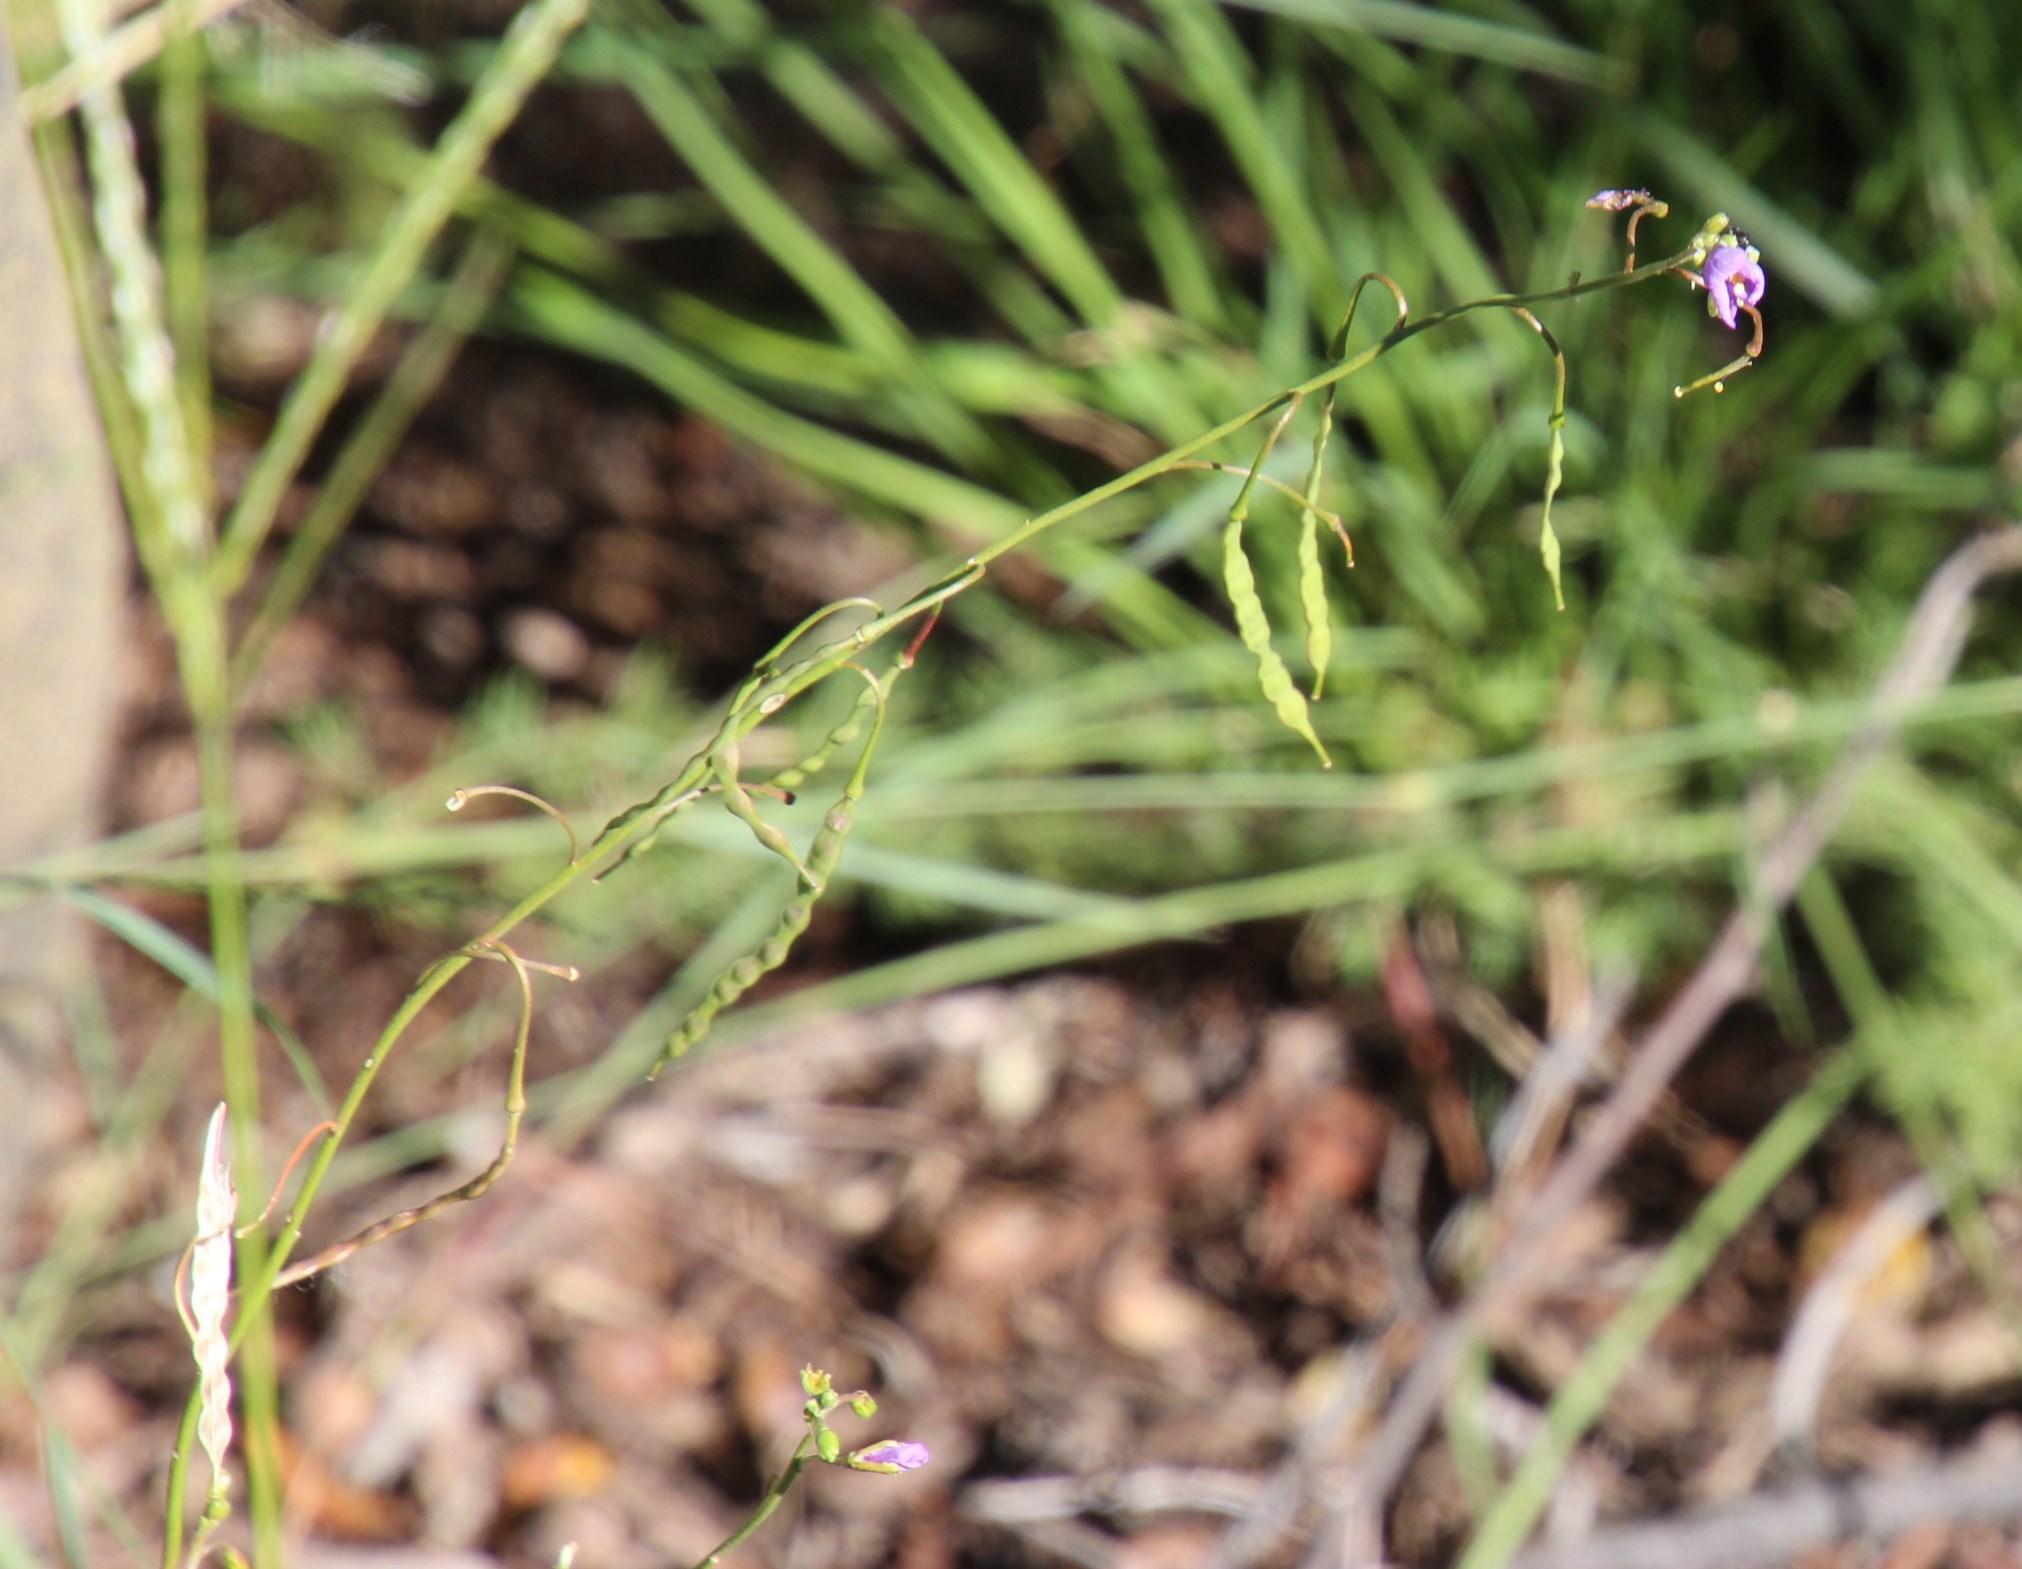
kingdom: Plantae
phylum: Tracheophyta
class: Magnoliopsida
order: Brassicales
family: Brassicaceae
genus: Heliophila
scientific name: Heliophila suavissima
